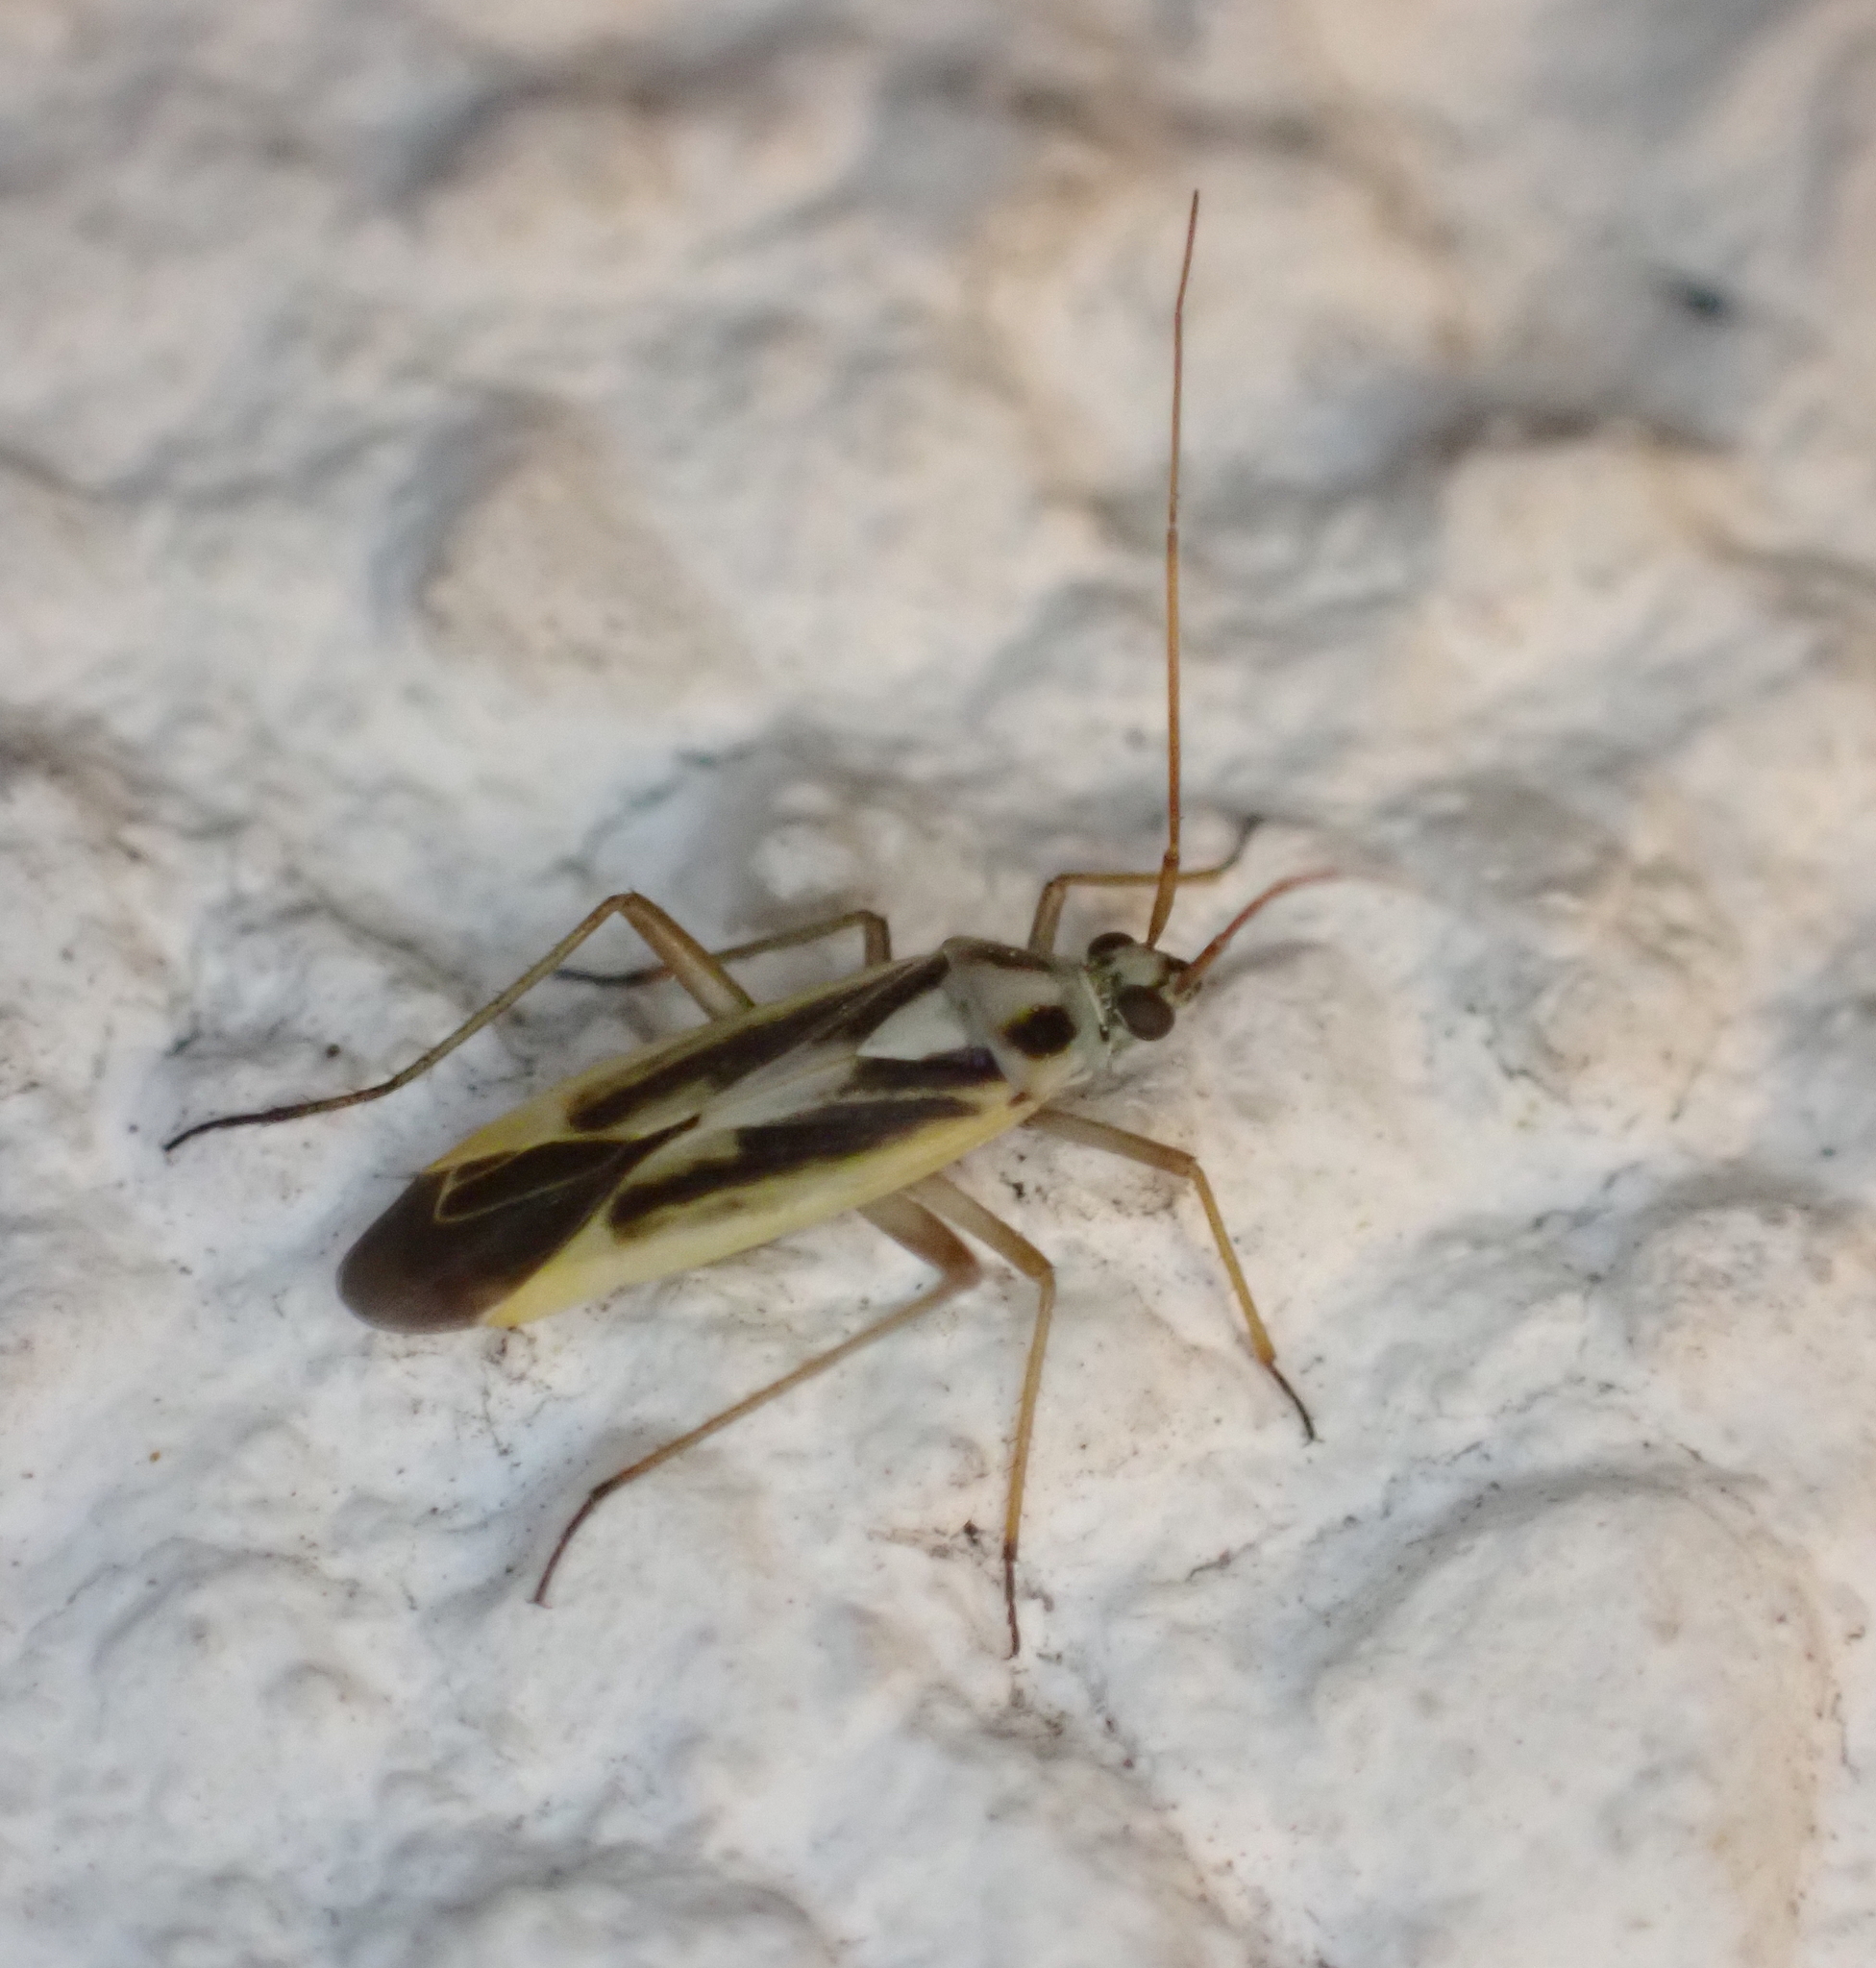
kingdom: Animalia
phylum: Arthropoda
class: Insecta
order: Hemiptera
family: Miridae
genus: Stenotus
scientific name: Stenotus binotatus
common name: Plant bug
